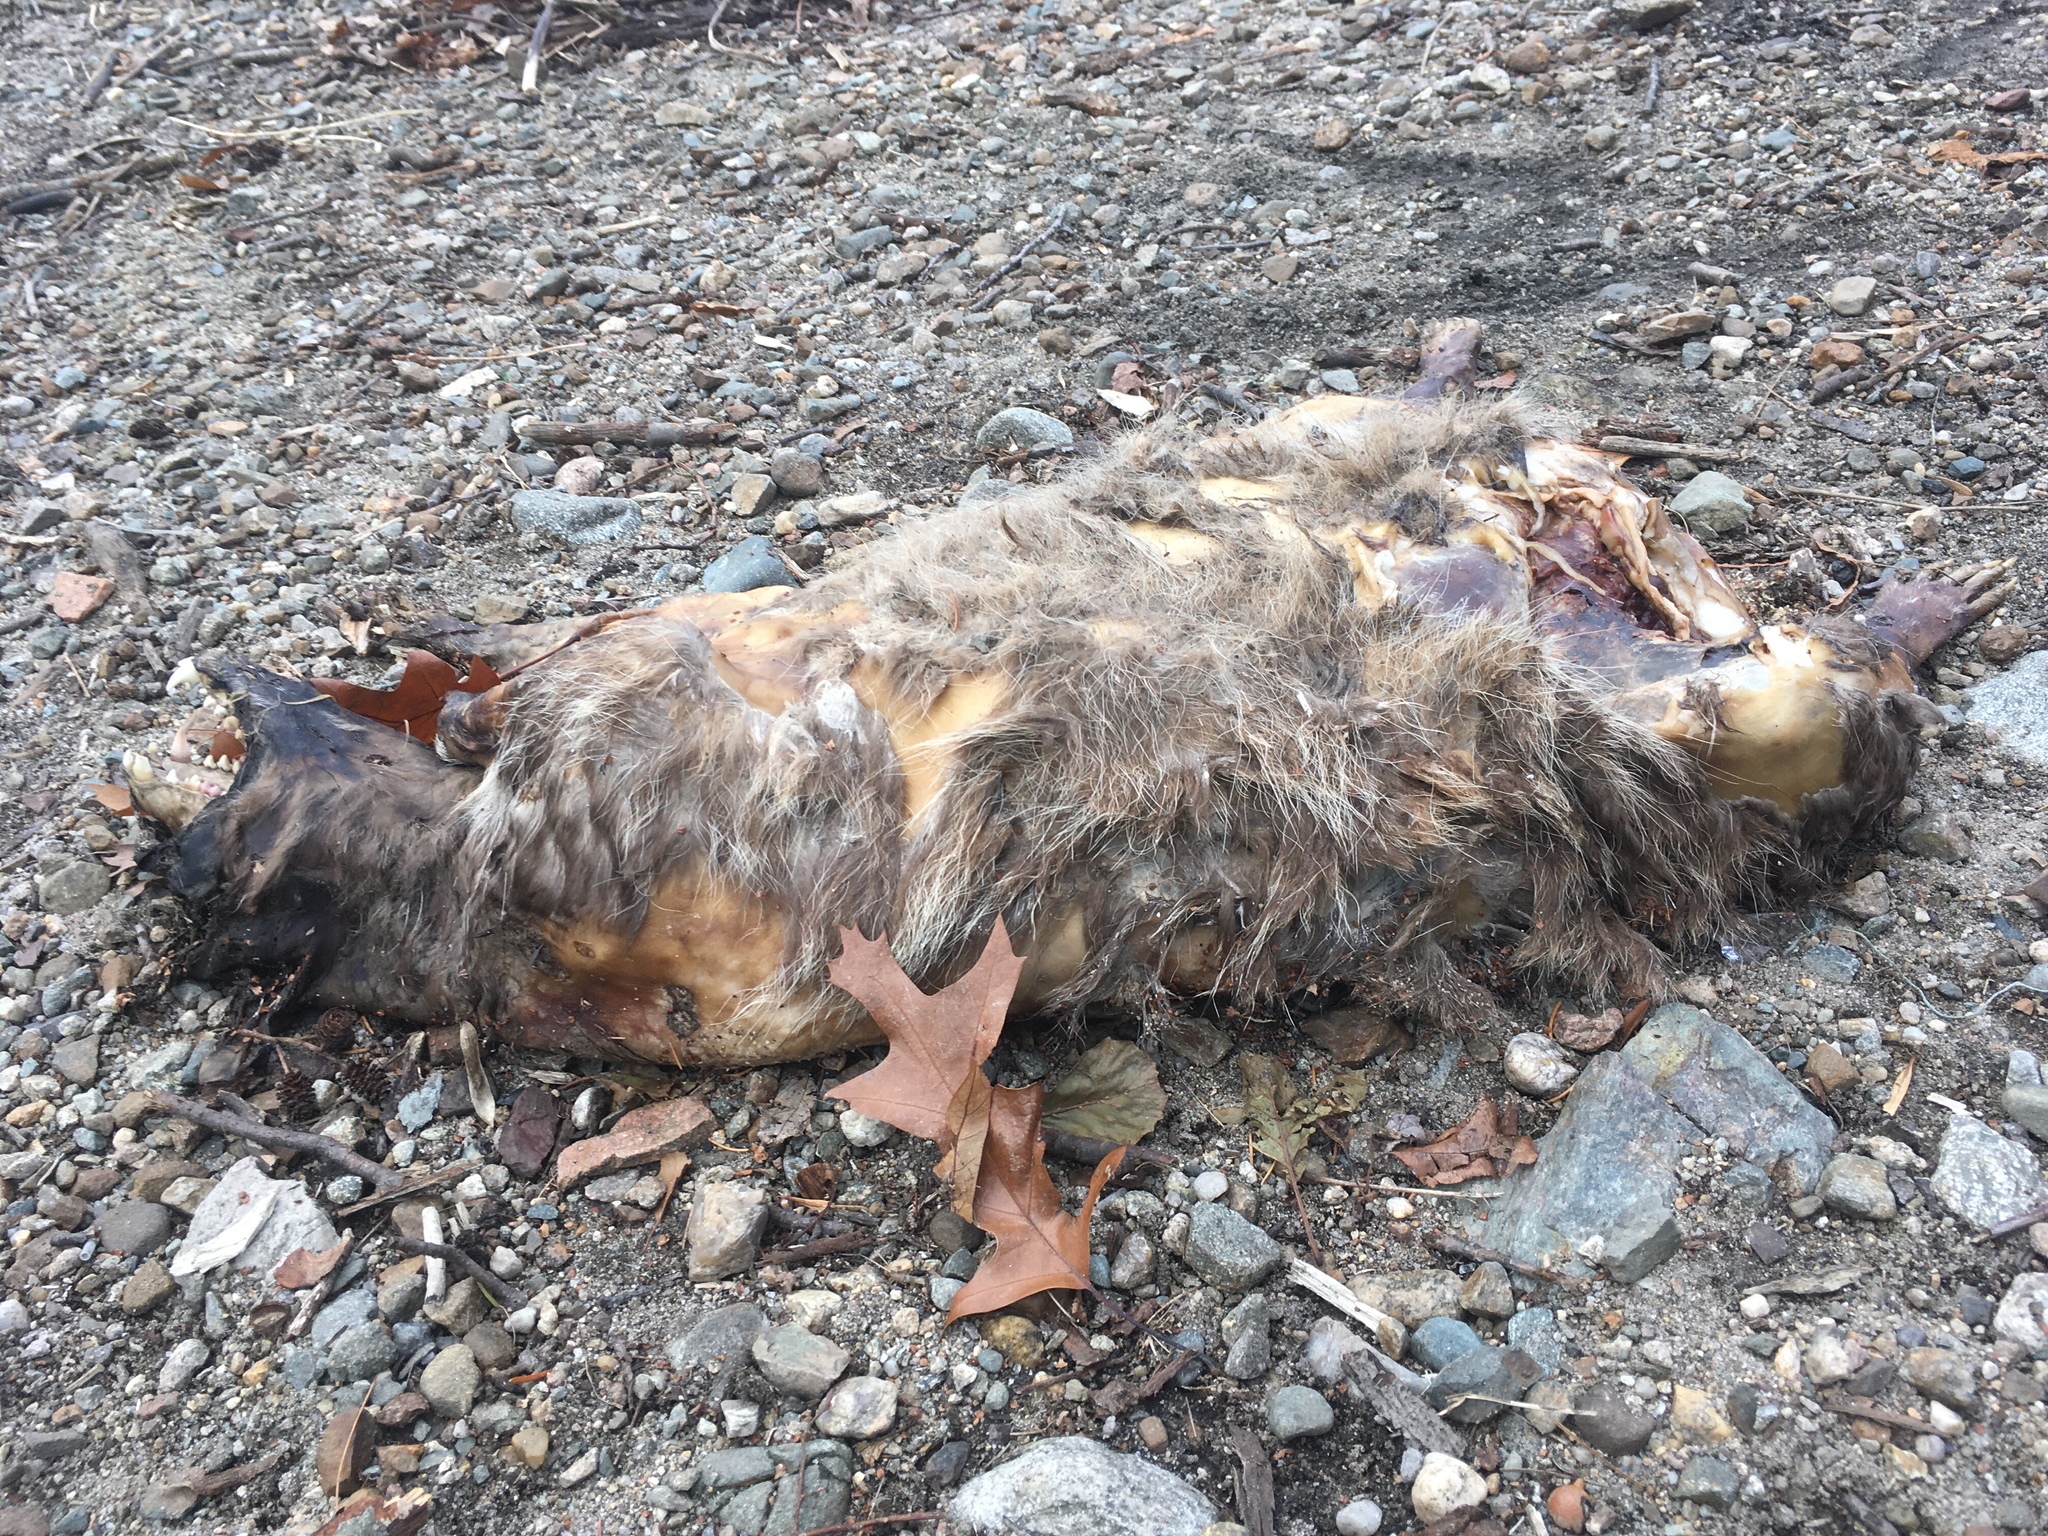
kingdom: Animalia
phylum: Chordata
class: Mammalia
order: Carnivora
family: Procyonidae
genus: Procyon
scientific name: Procyon lotor
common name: Raccoon
